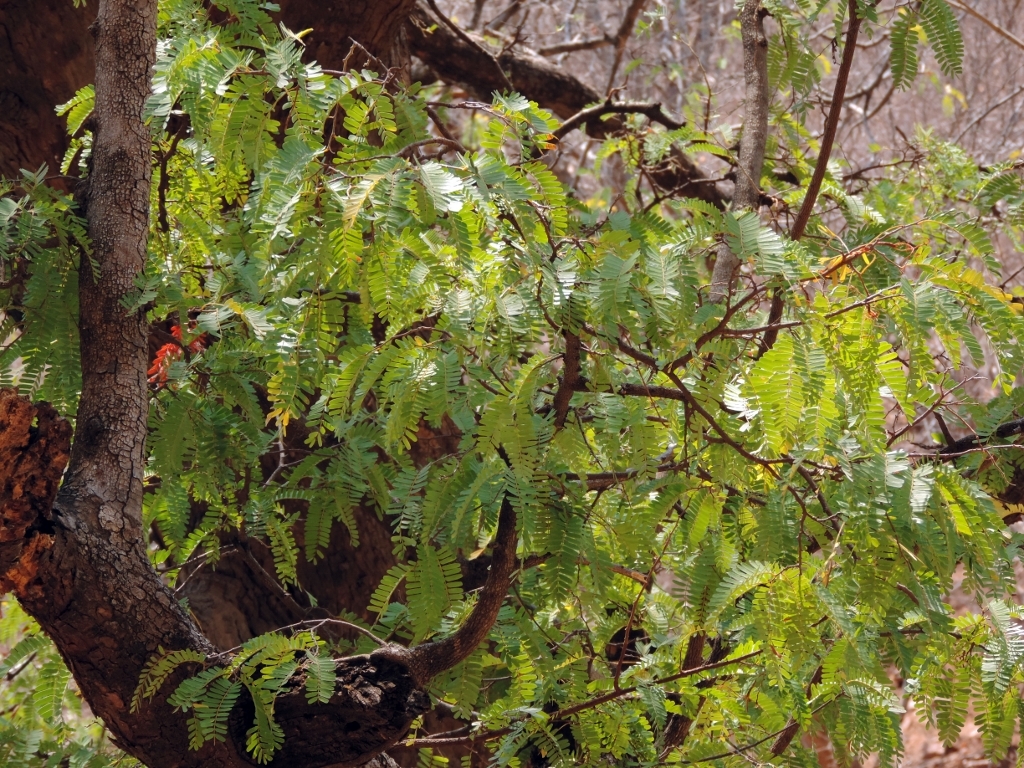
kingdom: Plantae
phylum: Tracheophyta
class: Magnoliopsida
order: Fabales
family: Fabaceae
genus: Tamarindus
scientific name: Tamarindus indica
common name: Tamarind
